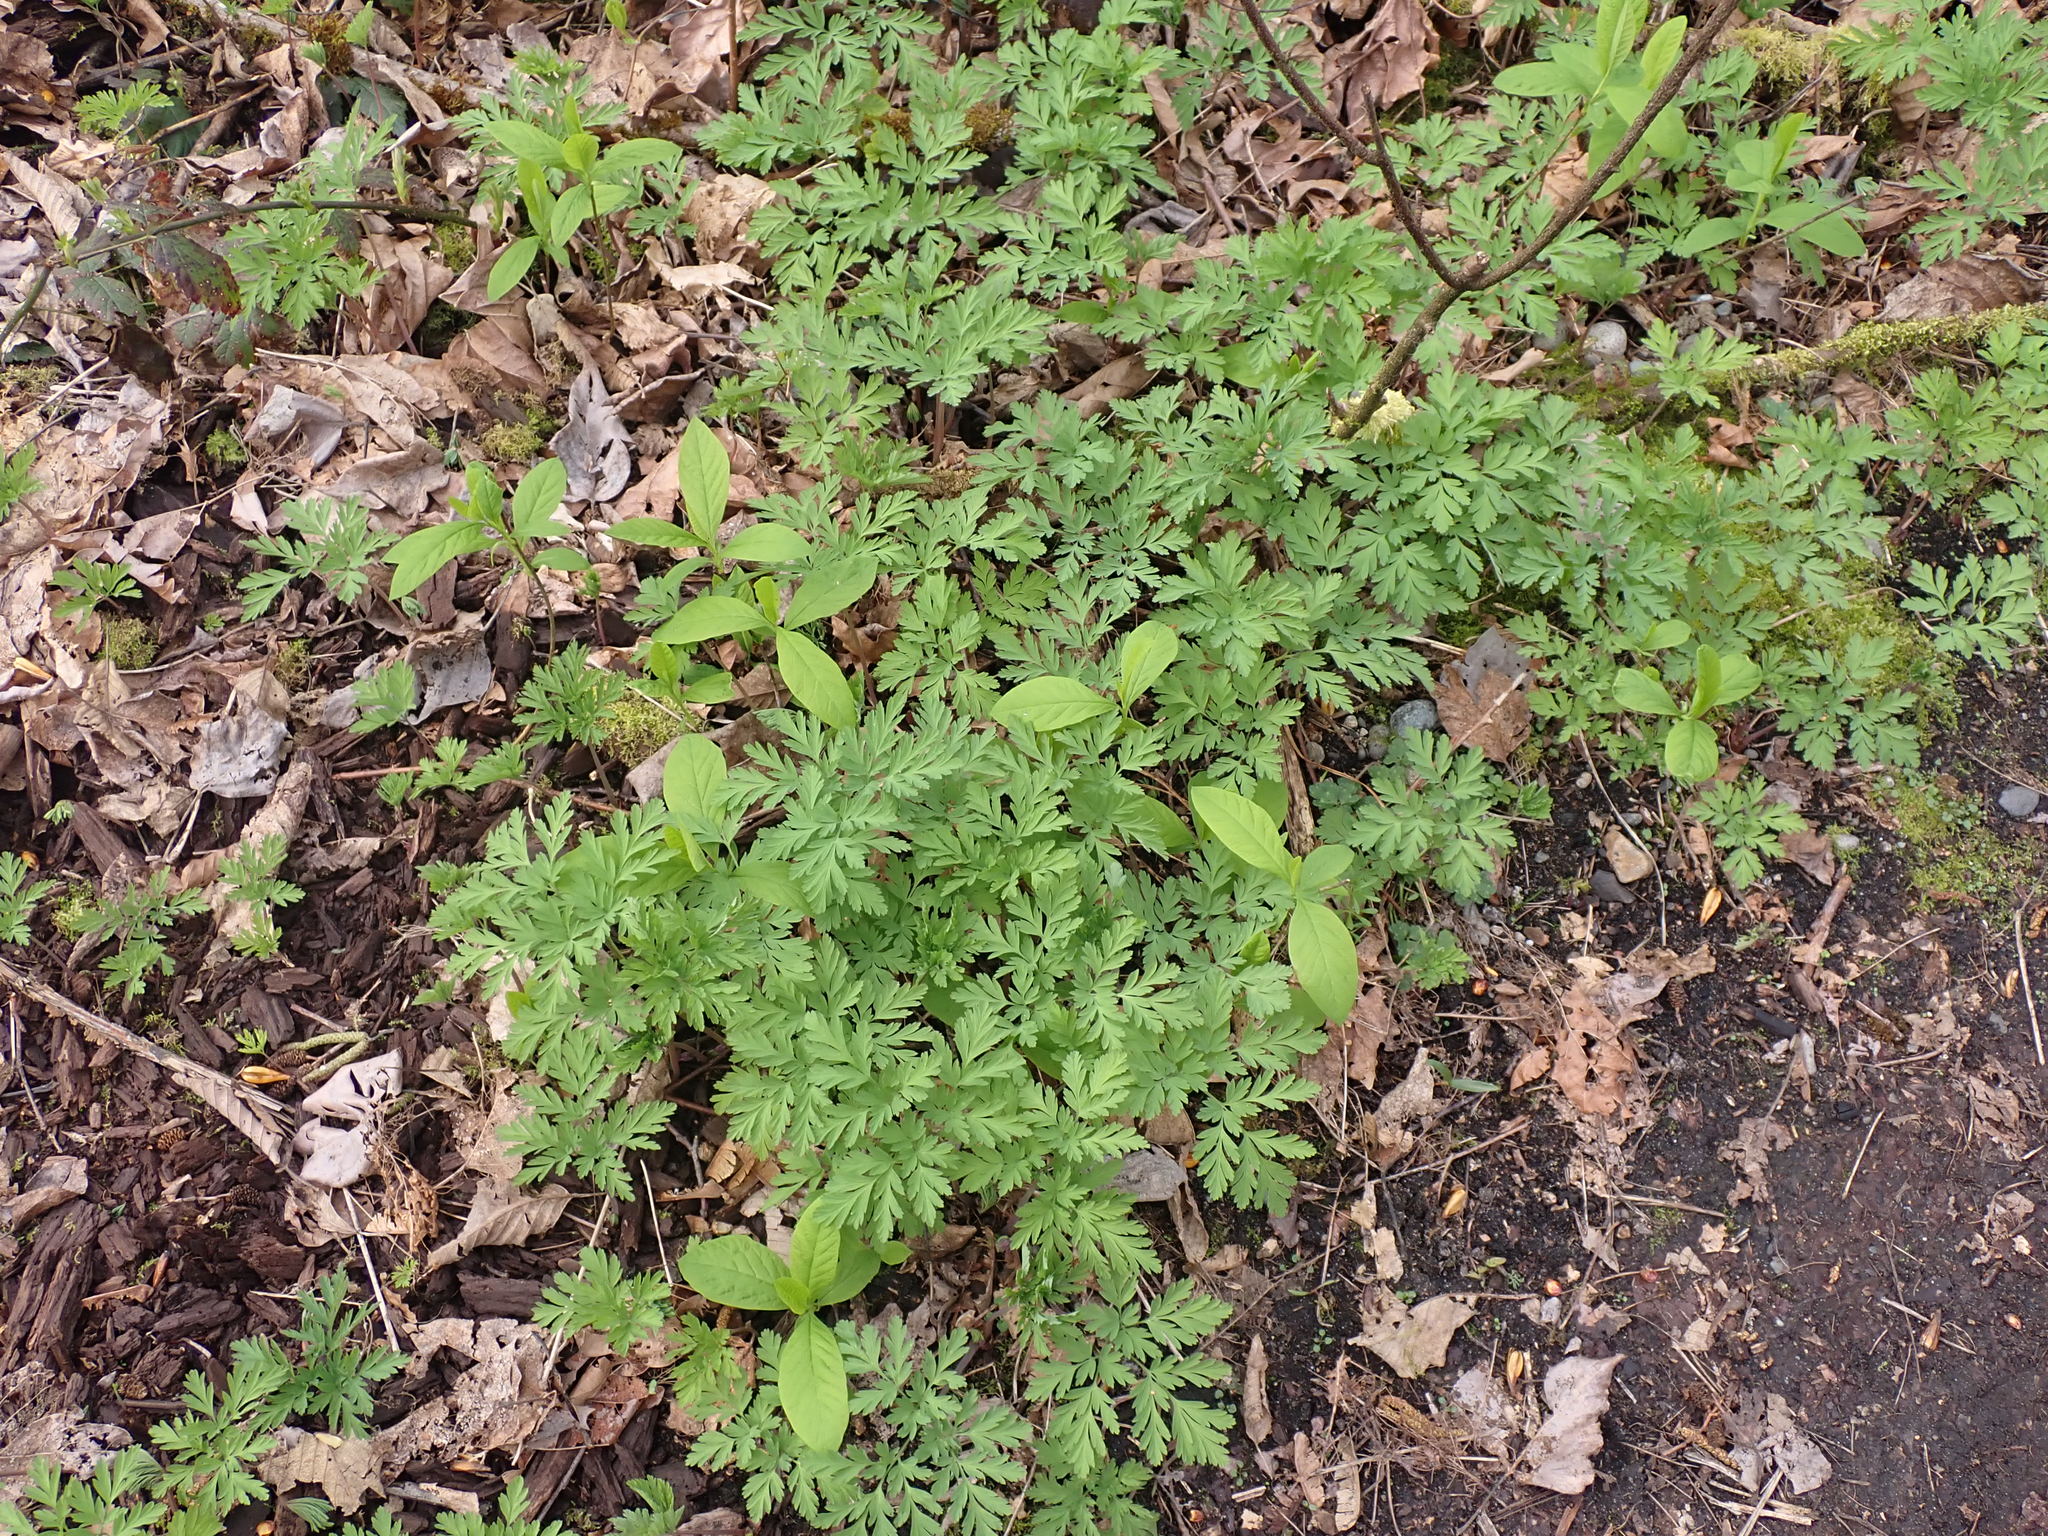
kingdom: Plantae
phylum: Tracheophyta
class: Magnoliopsida
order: Ranunculales
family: Papaveraceae
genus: Dicentra
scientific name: Dicentra formosa
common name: Bleeding-heart
